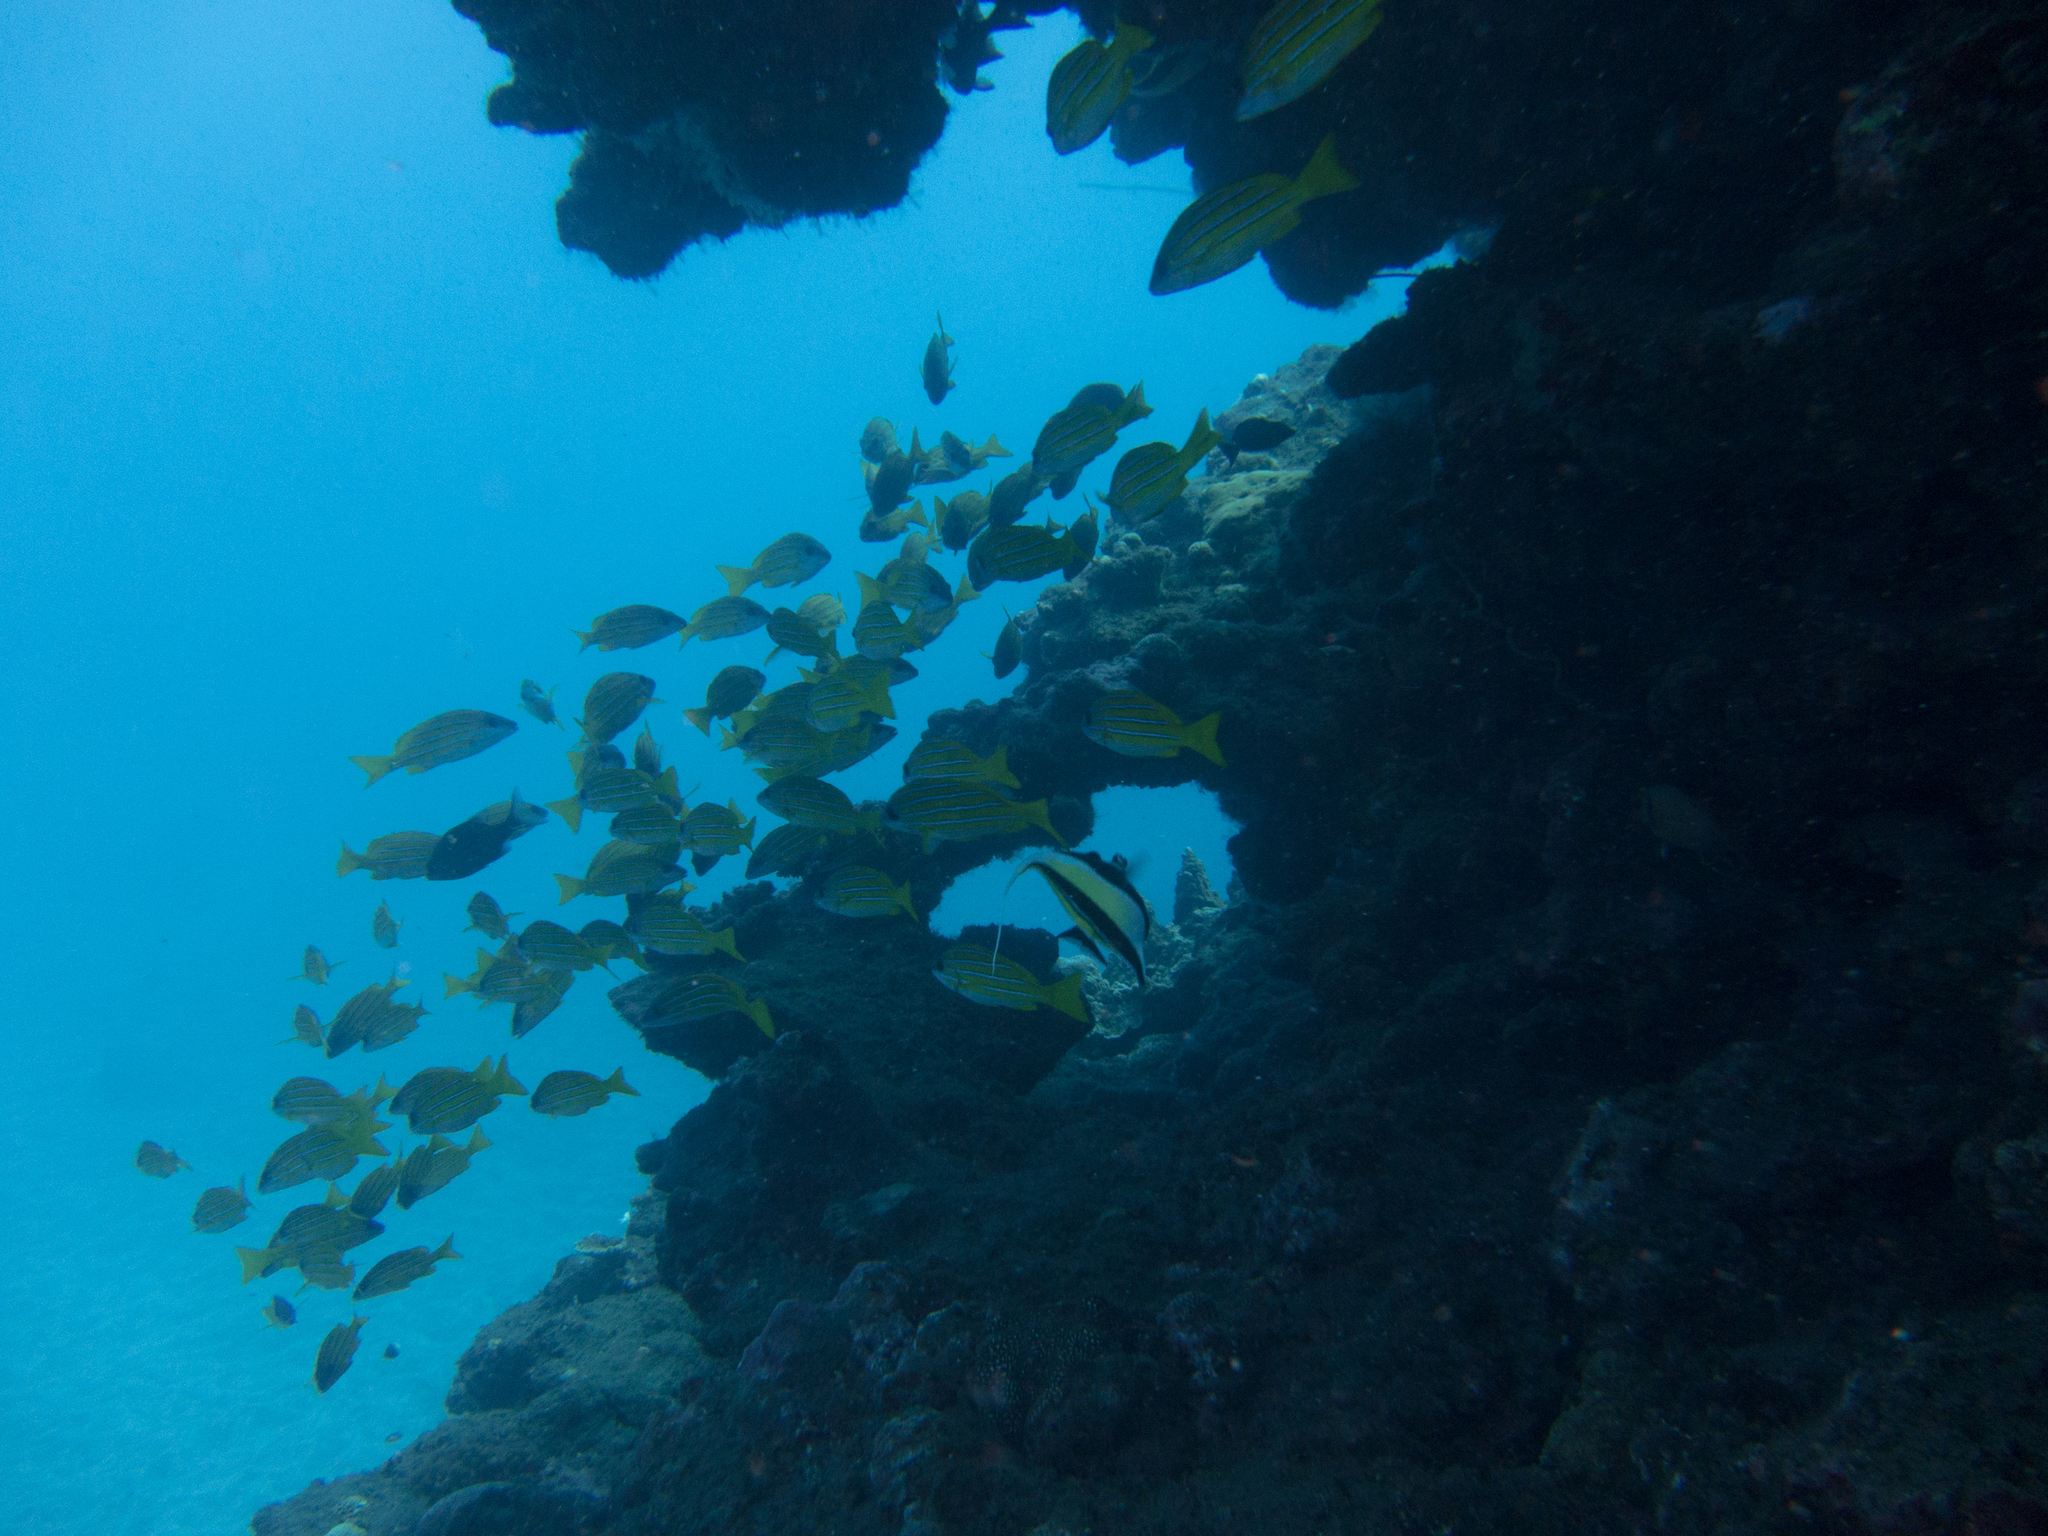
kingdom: Animalia
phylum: Chordata
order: Perciformes
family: Lutjanidae
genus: Lutjanus
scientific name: Lutjanus kasmira
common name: Common bluestripe snapper
